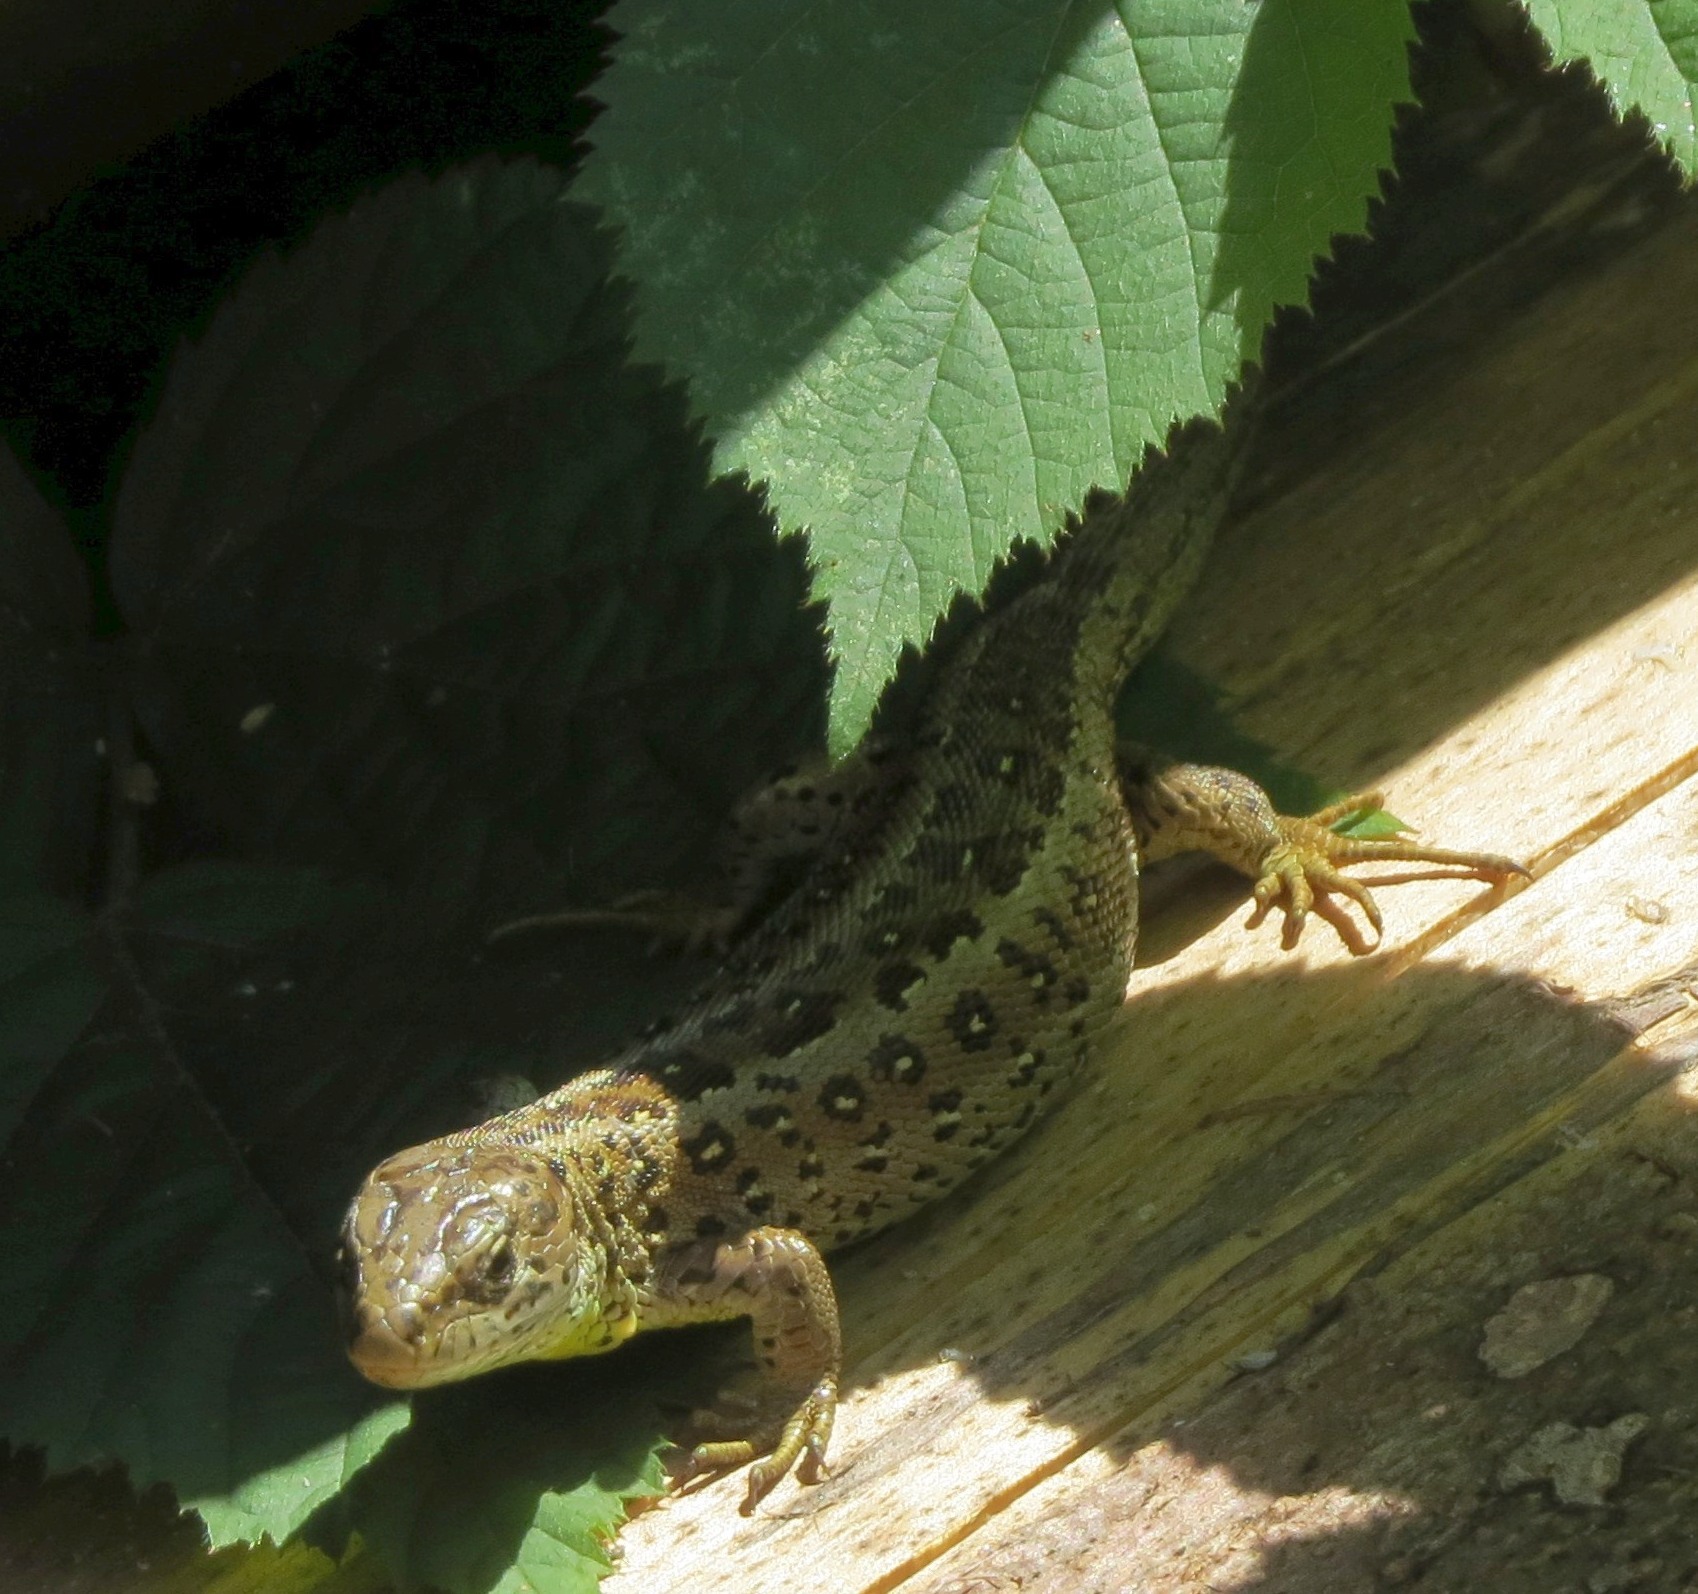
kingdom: Animalia
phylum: Chordata
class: Squamata
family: Lacertidae
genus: Lacerta
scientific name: Lacerta agilis
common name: Sand lizard
